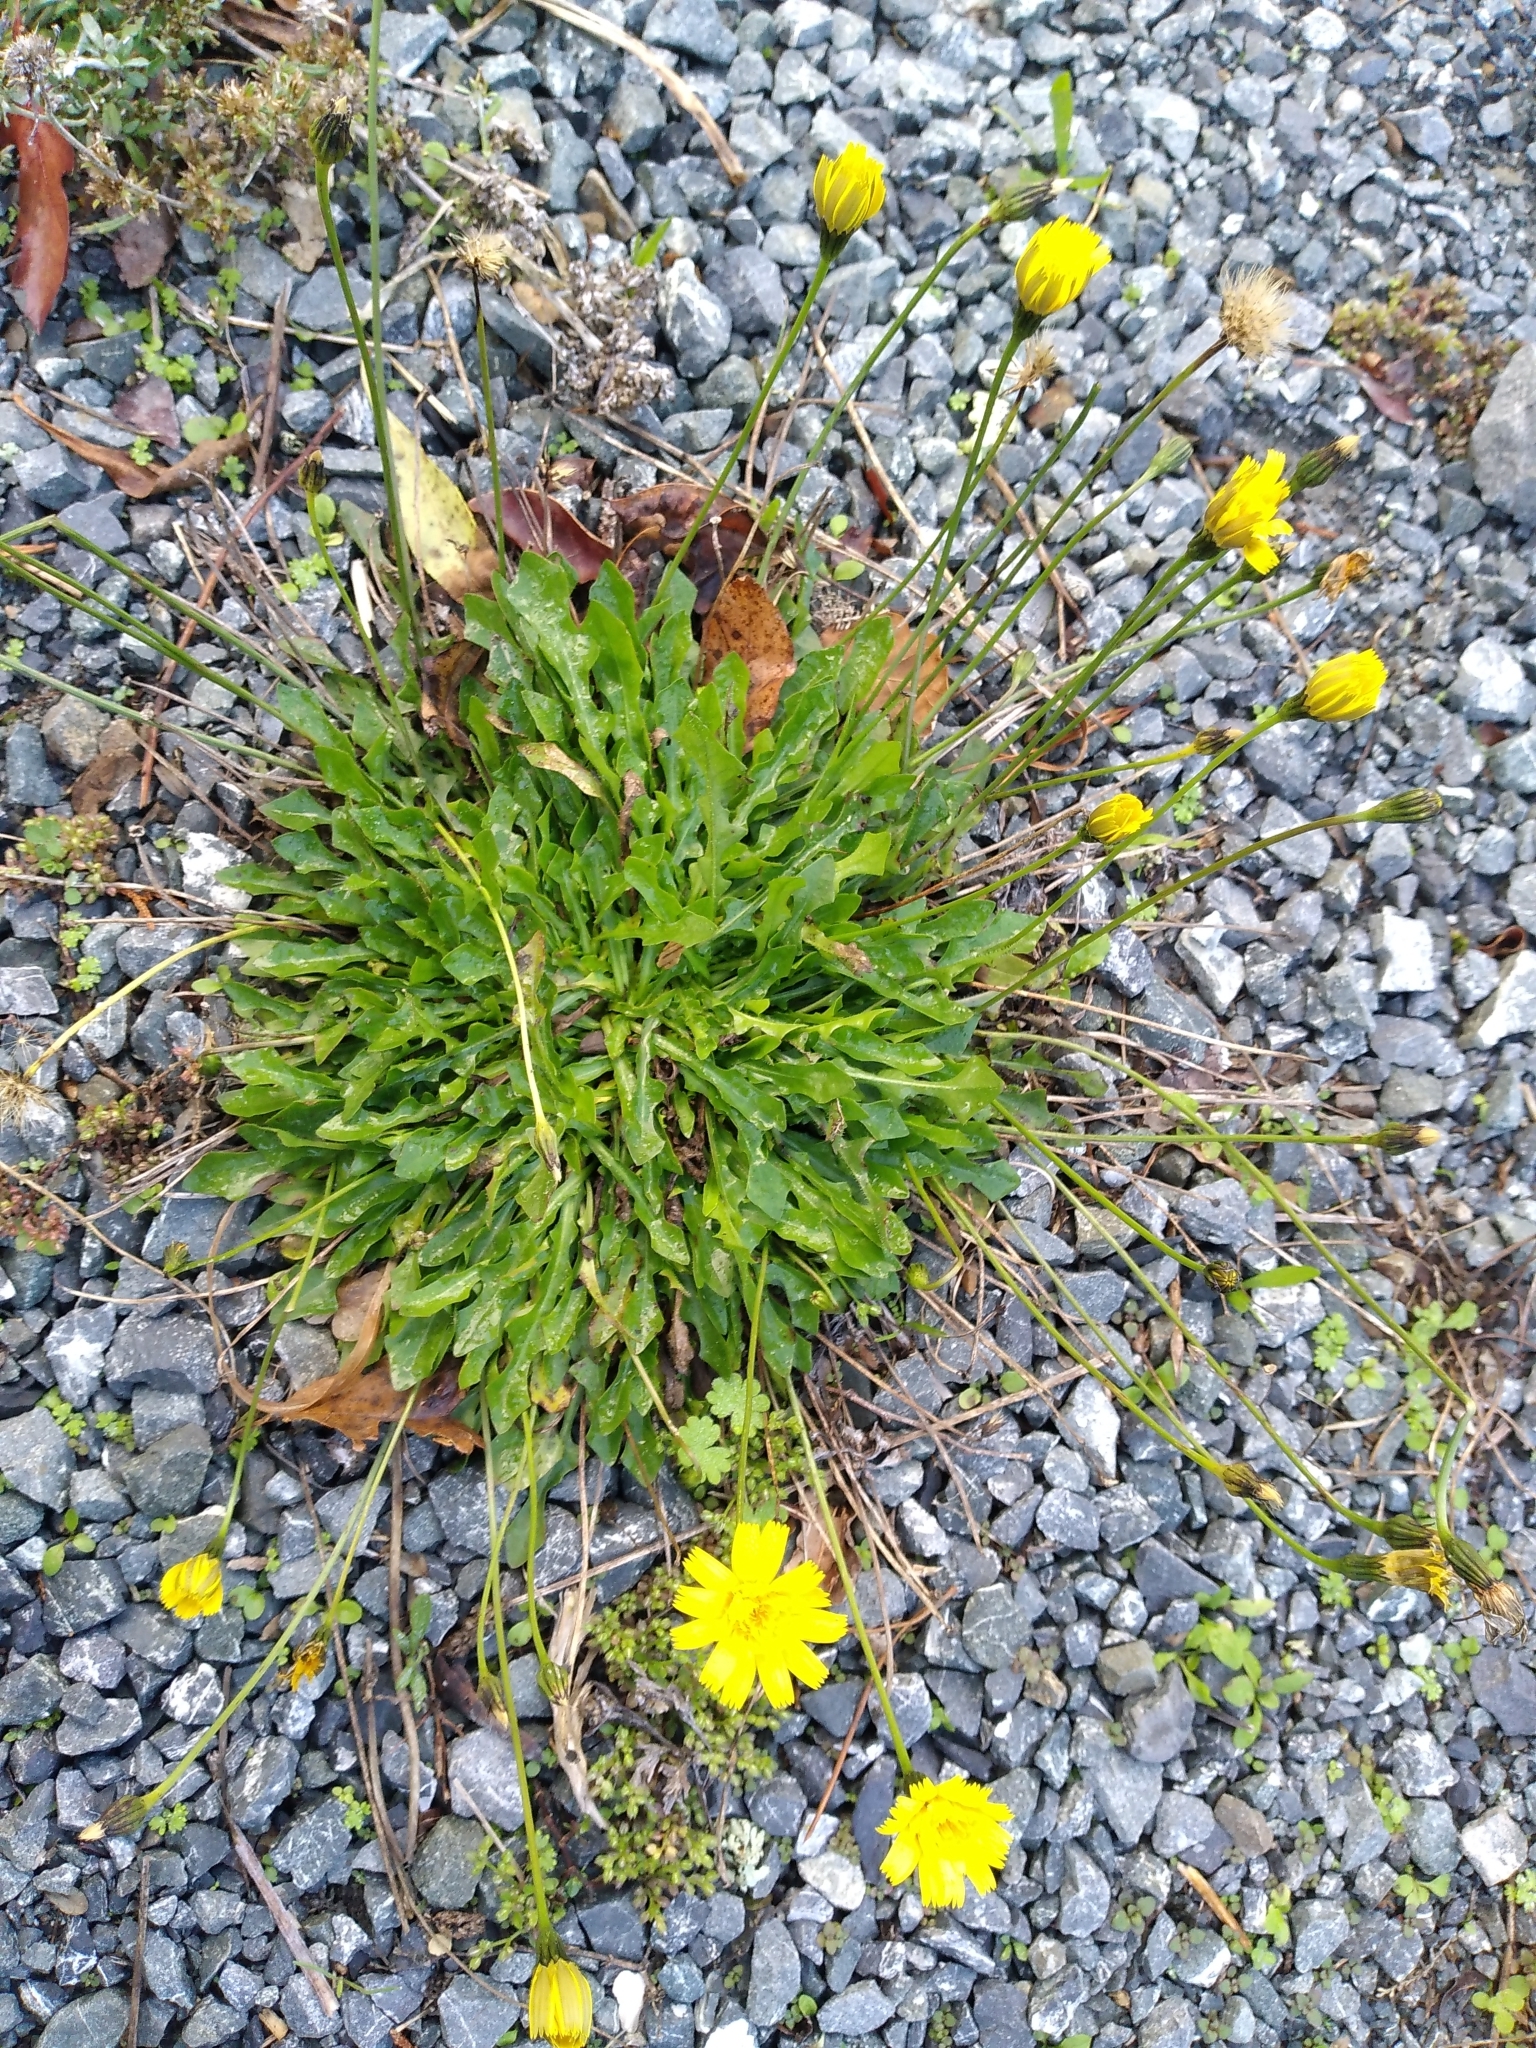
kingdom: Plantae
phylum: Tracheophyta
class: Magnoliopsida
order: Asterales
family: Asteraceae
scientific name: Asteraceae
